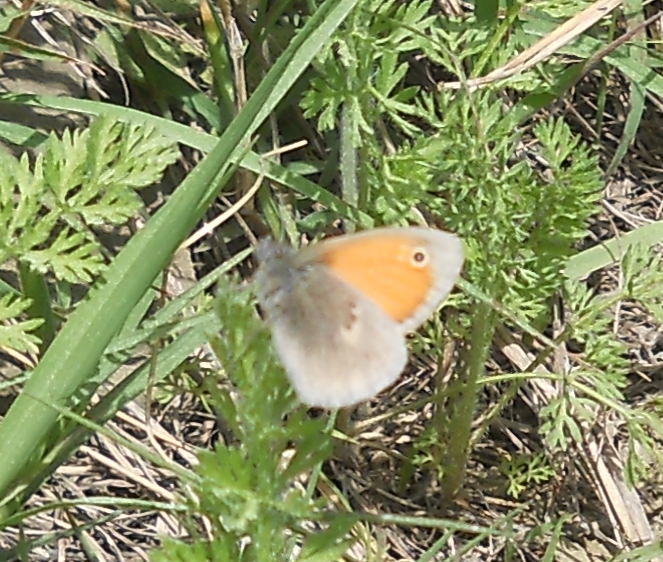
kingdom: Animalia
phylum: Arthropoda
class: Insecta
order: Lepidoptera
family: Nymphalidae
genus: Coenonympha
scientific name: Coenonympha pamphilus
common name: Small heath
